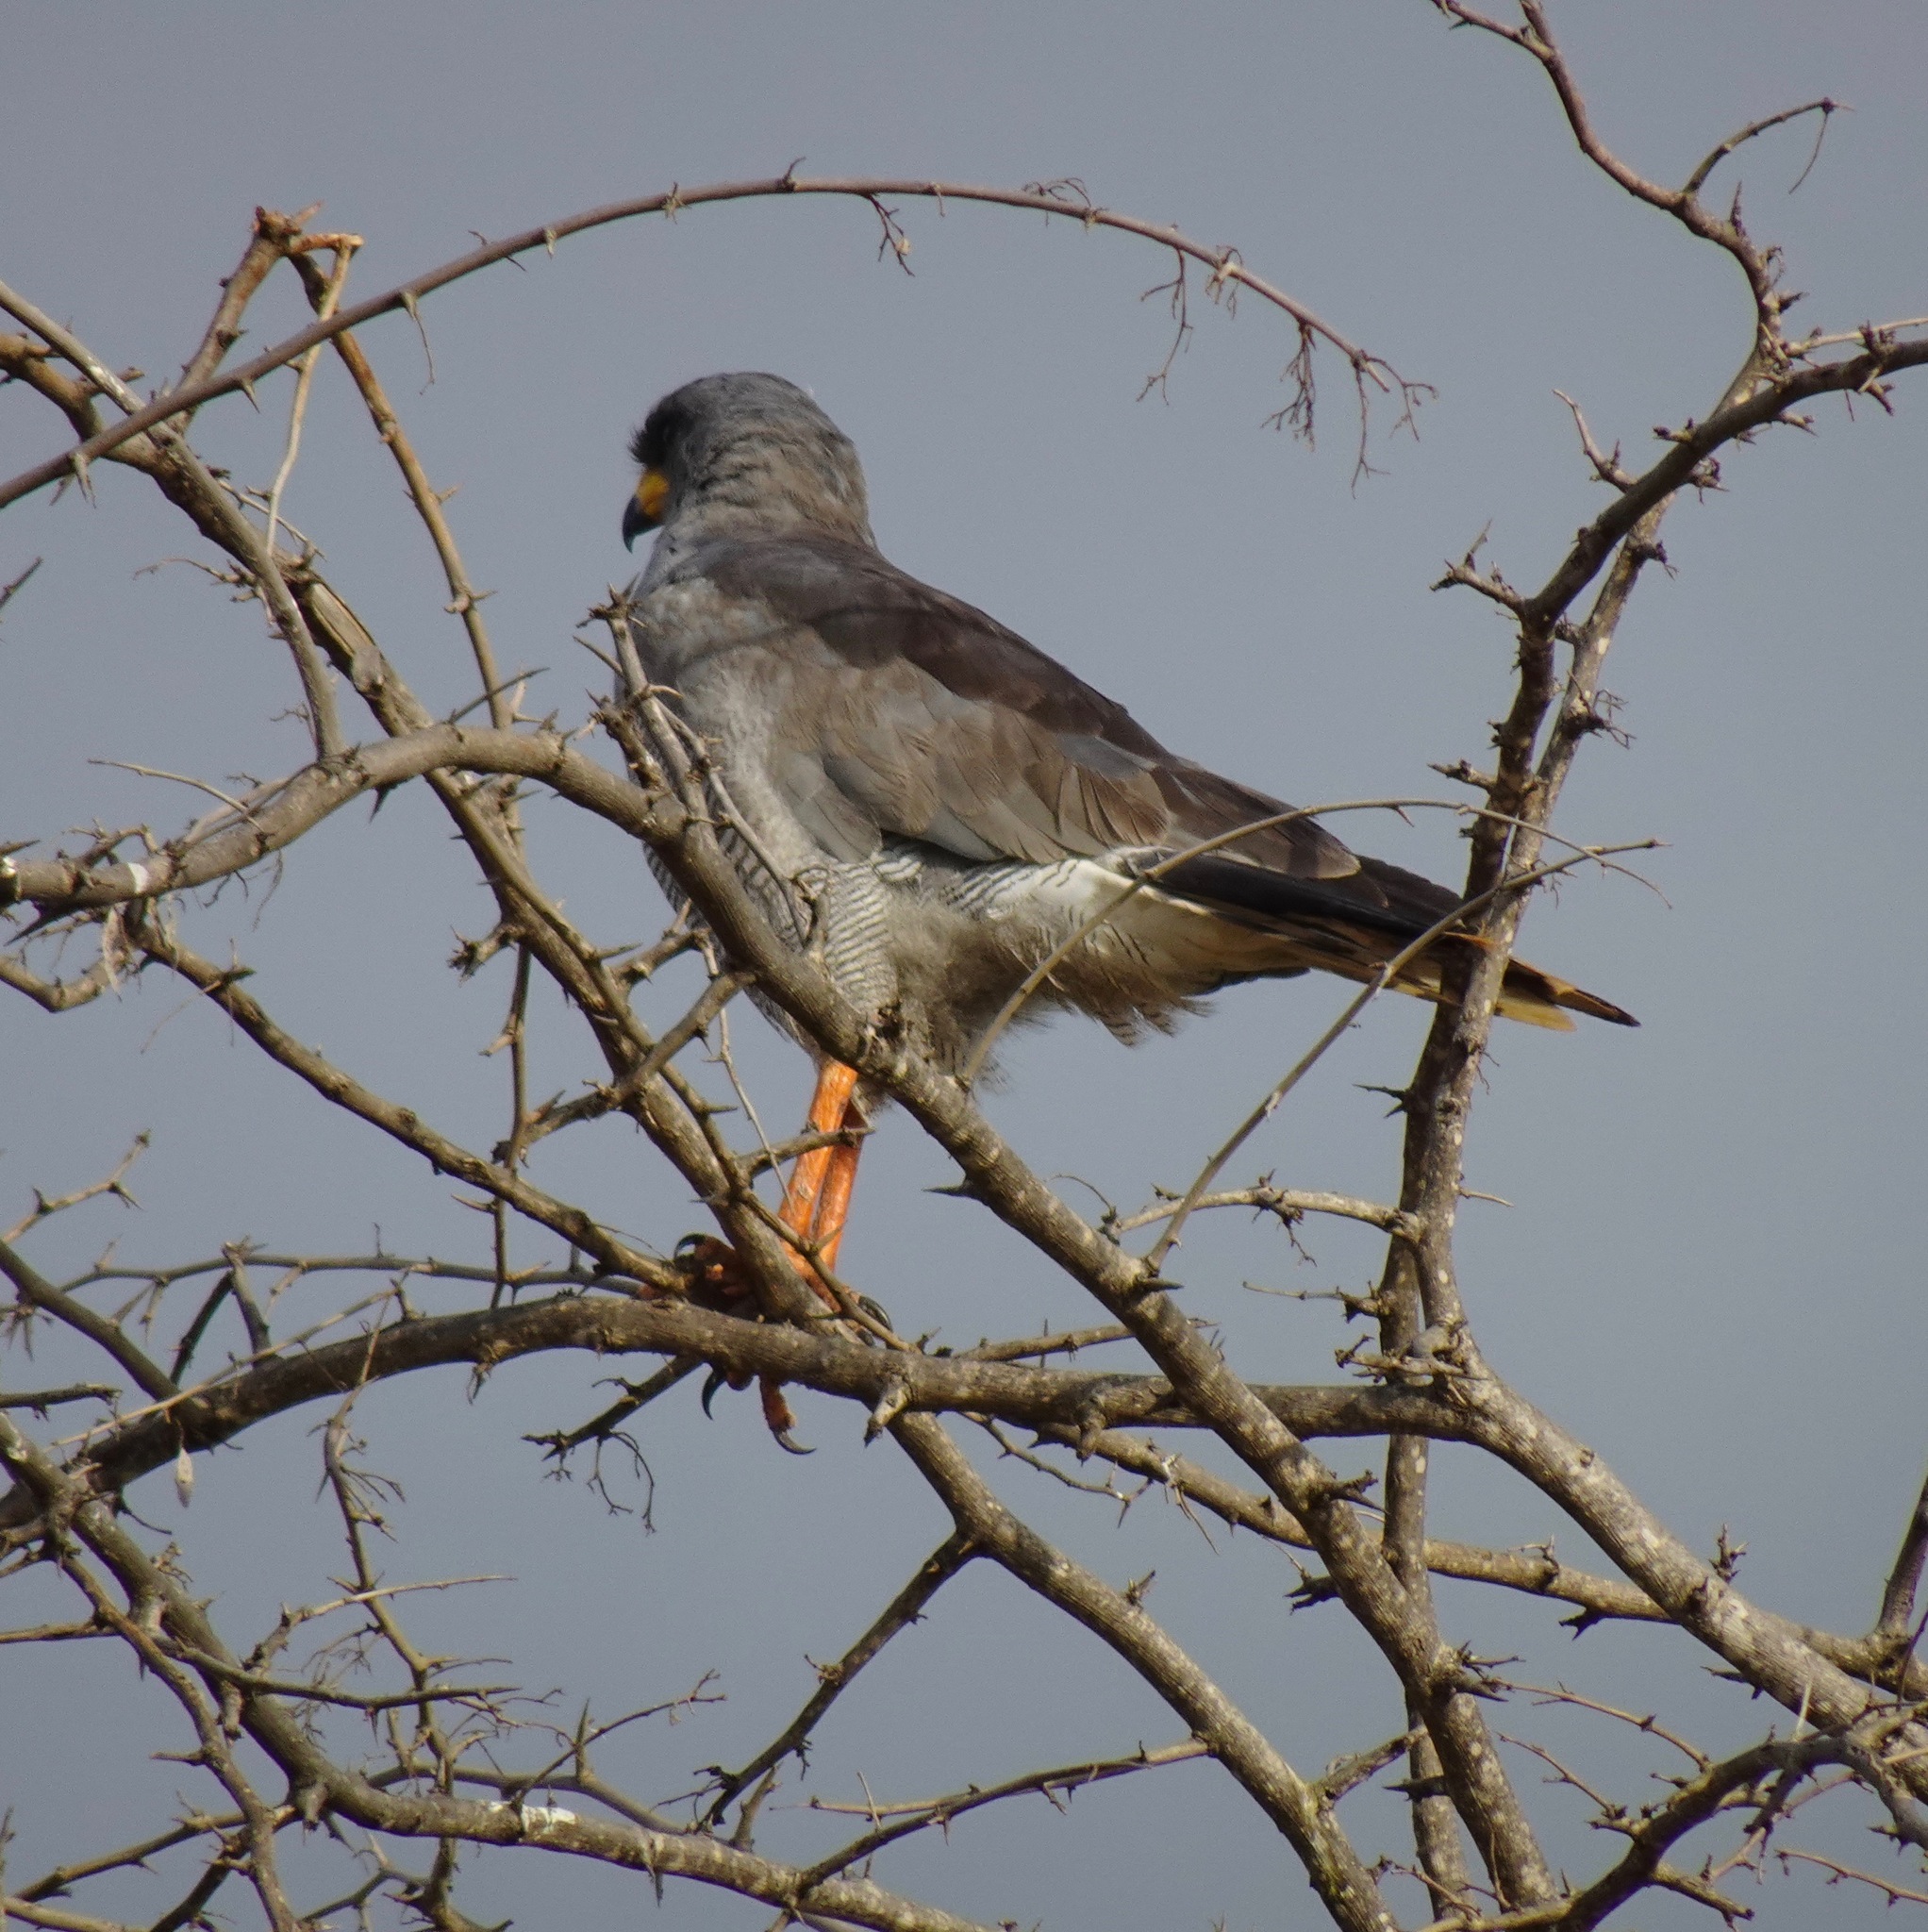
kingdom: Animalia
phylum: Chordata
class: Aves
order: Accipitriformes
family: Accipitridae
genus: Melierax
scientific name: Melierax poliopterus
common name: Eastern chanting goshawk
